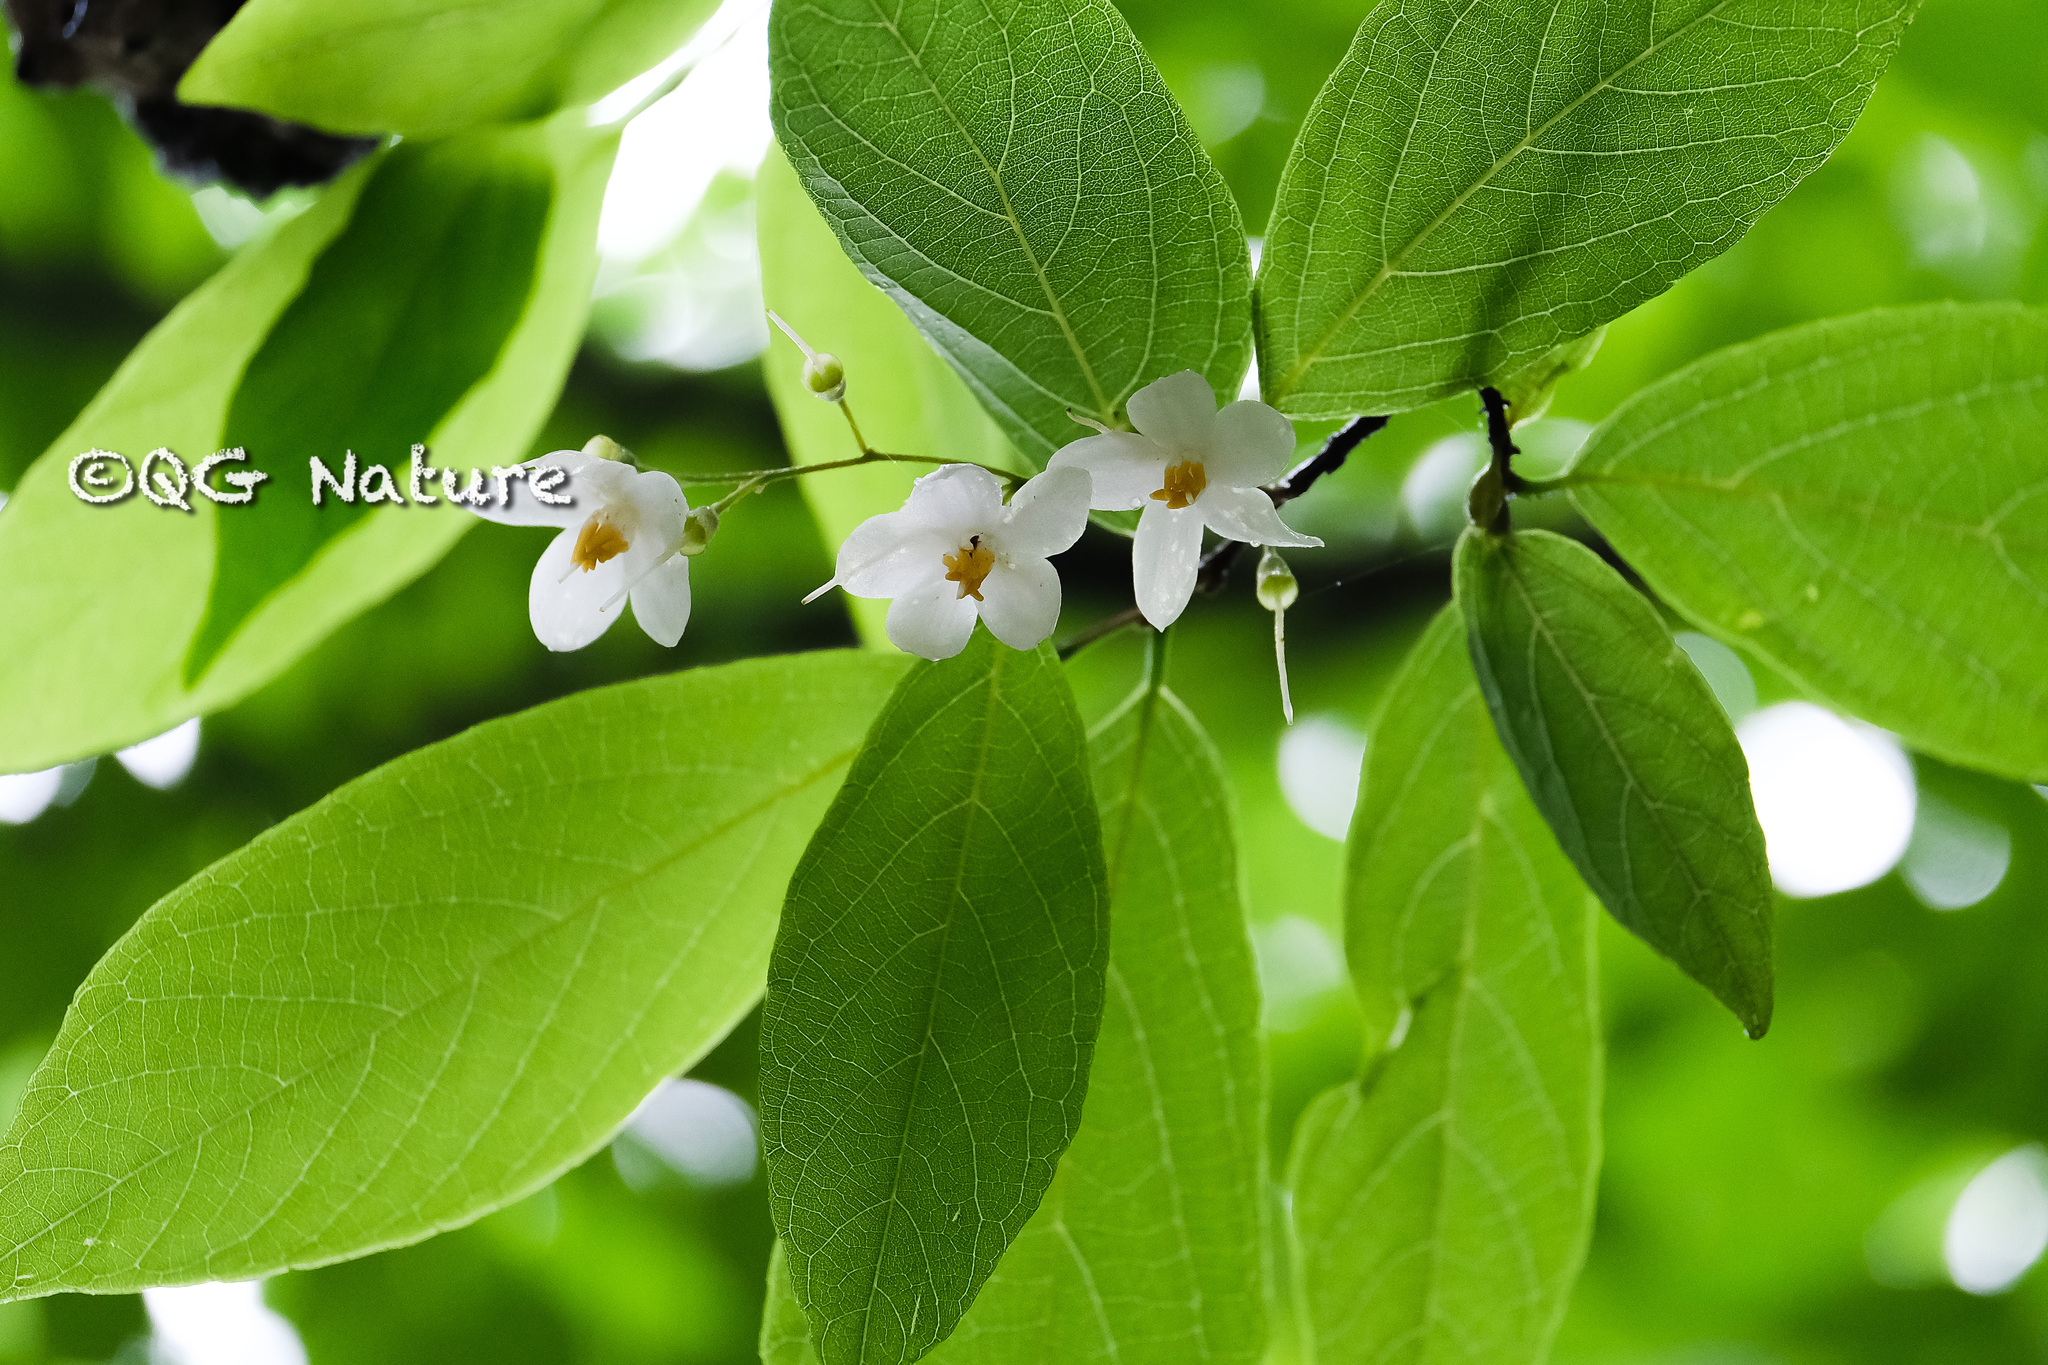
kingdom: Plantae
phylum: Tracheophyta
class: Magnoliopsida
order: Ericales
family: Styracaceae
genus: Styrax
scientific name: Styrax japonicus
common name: Japanese snowbell
